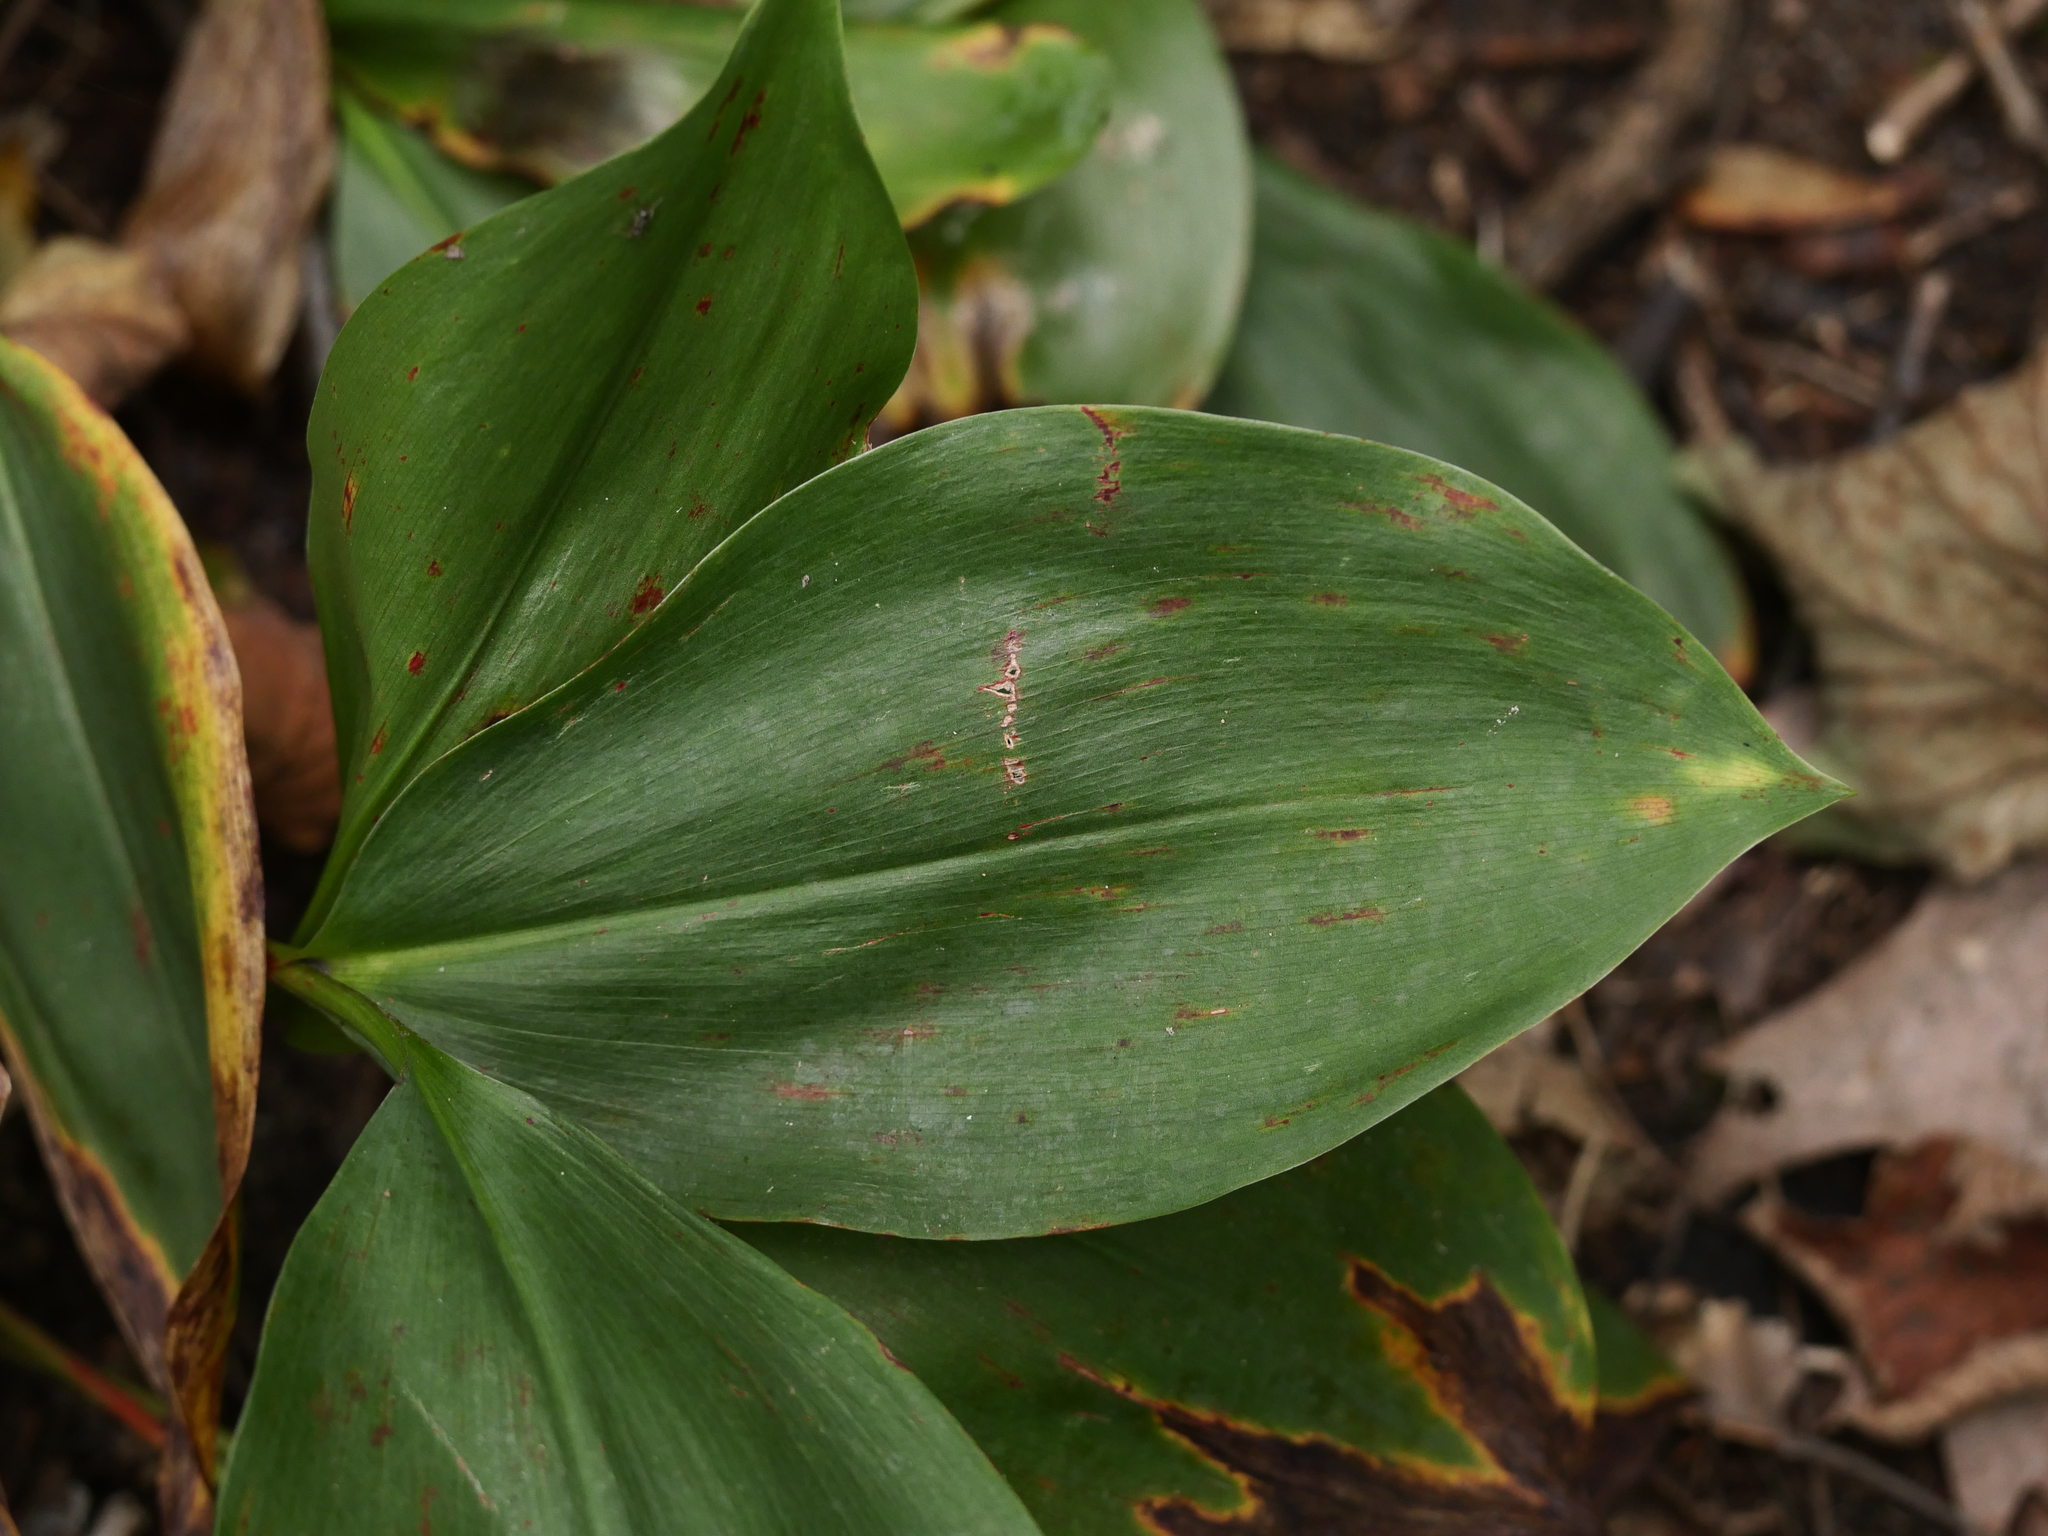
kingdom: Plantae
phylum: Tracheophyta
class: Liliopsida
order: Asparagales
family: Asparagaceae
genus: Convallaria
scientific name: Convallaria majalis
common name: Lily-of-the-valley
